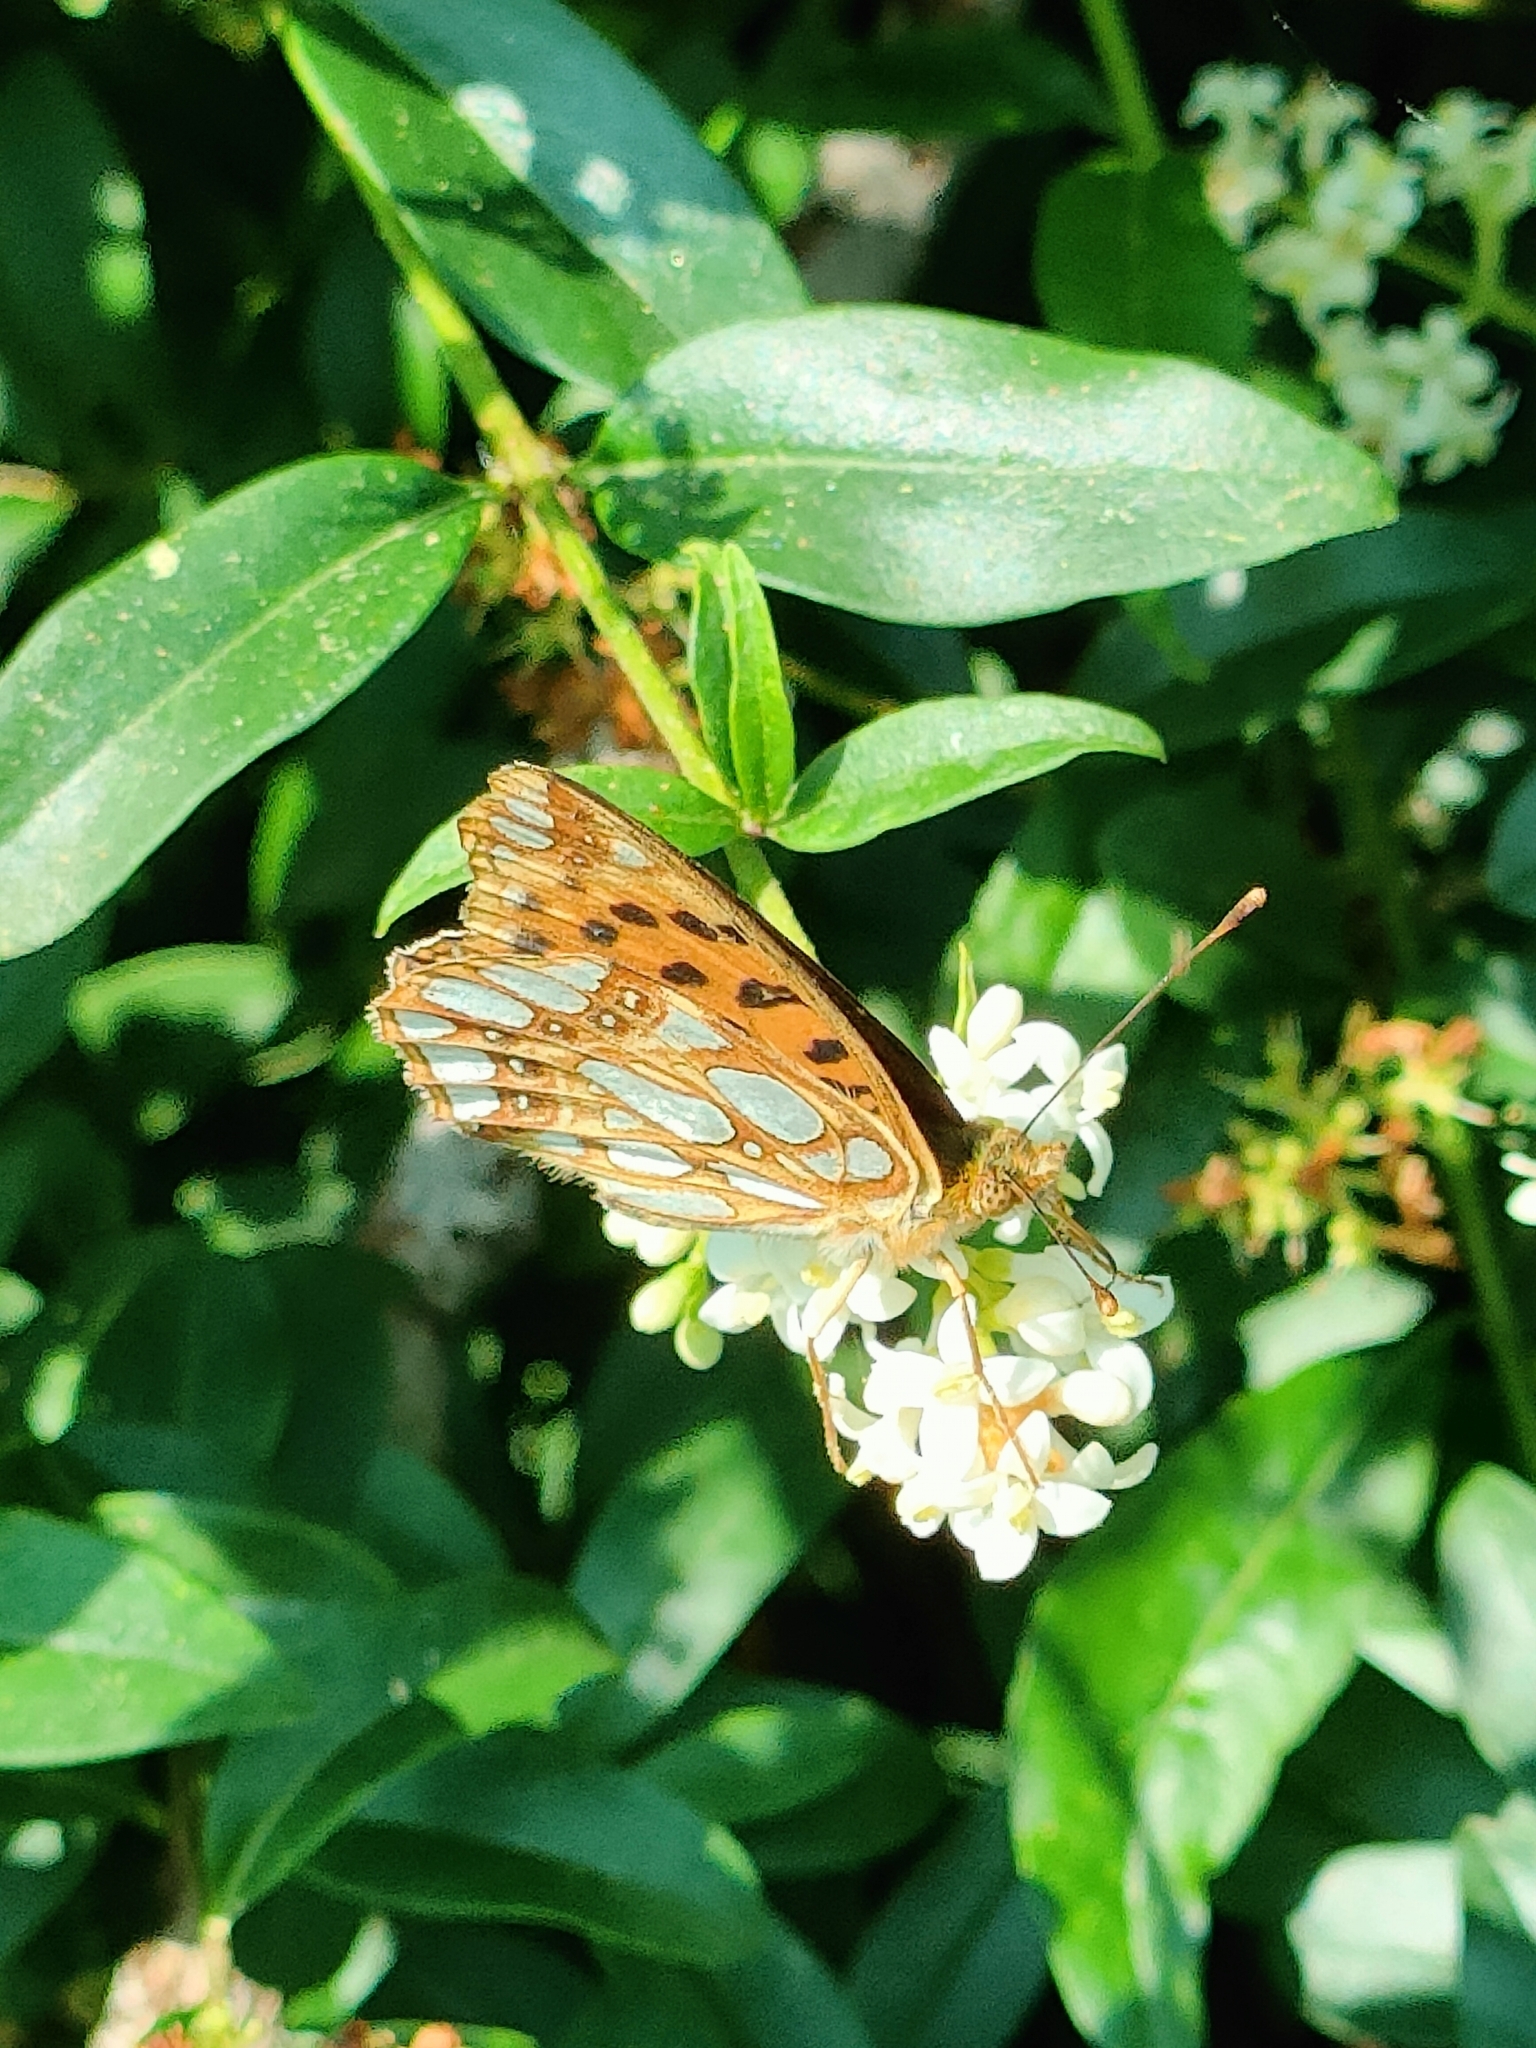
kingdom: Animalia
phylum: Arthropoda
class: Insecta
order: Lepidoptera
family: Nymphalidae
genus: Issoria
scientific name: Issoria lathonia
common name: Queen of spain fritillary
